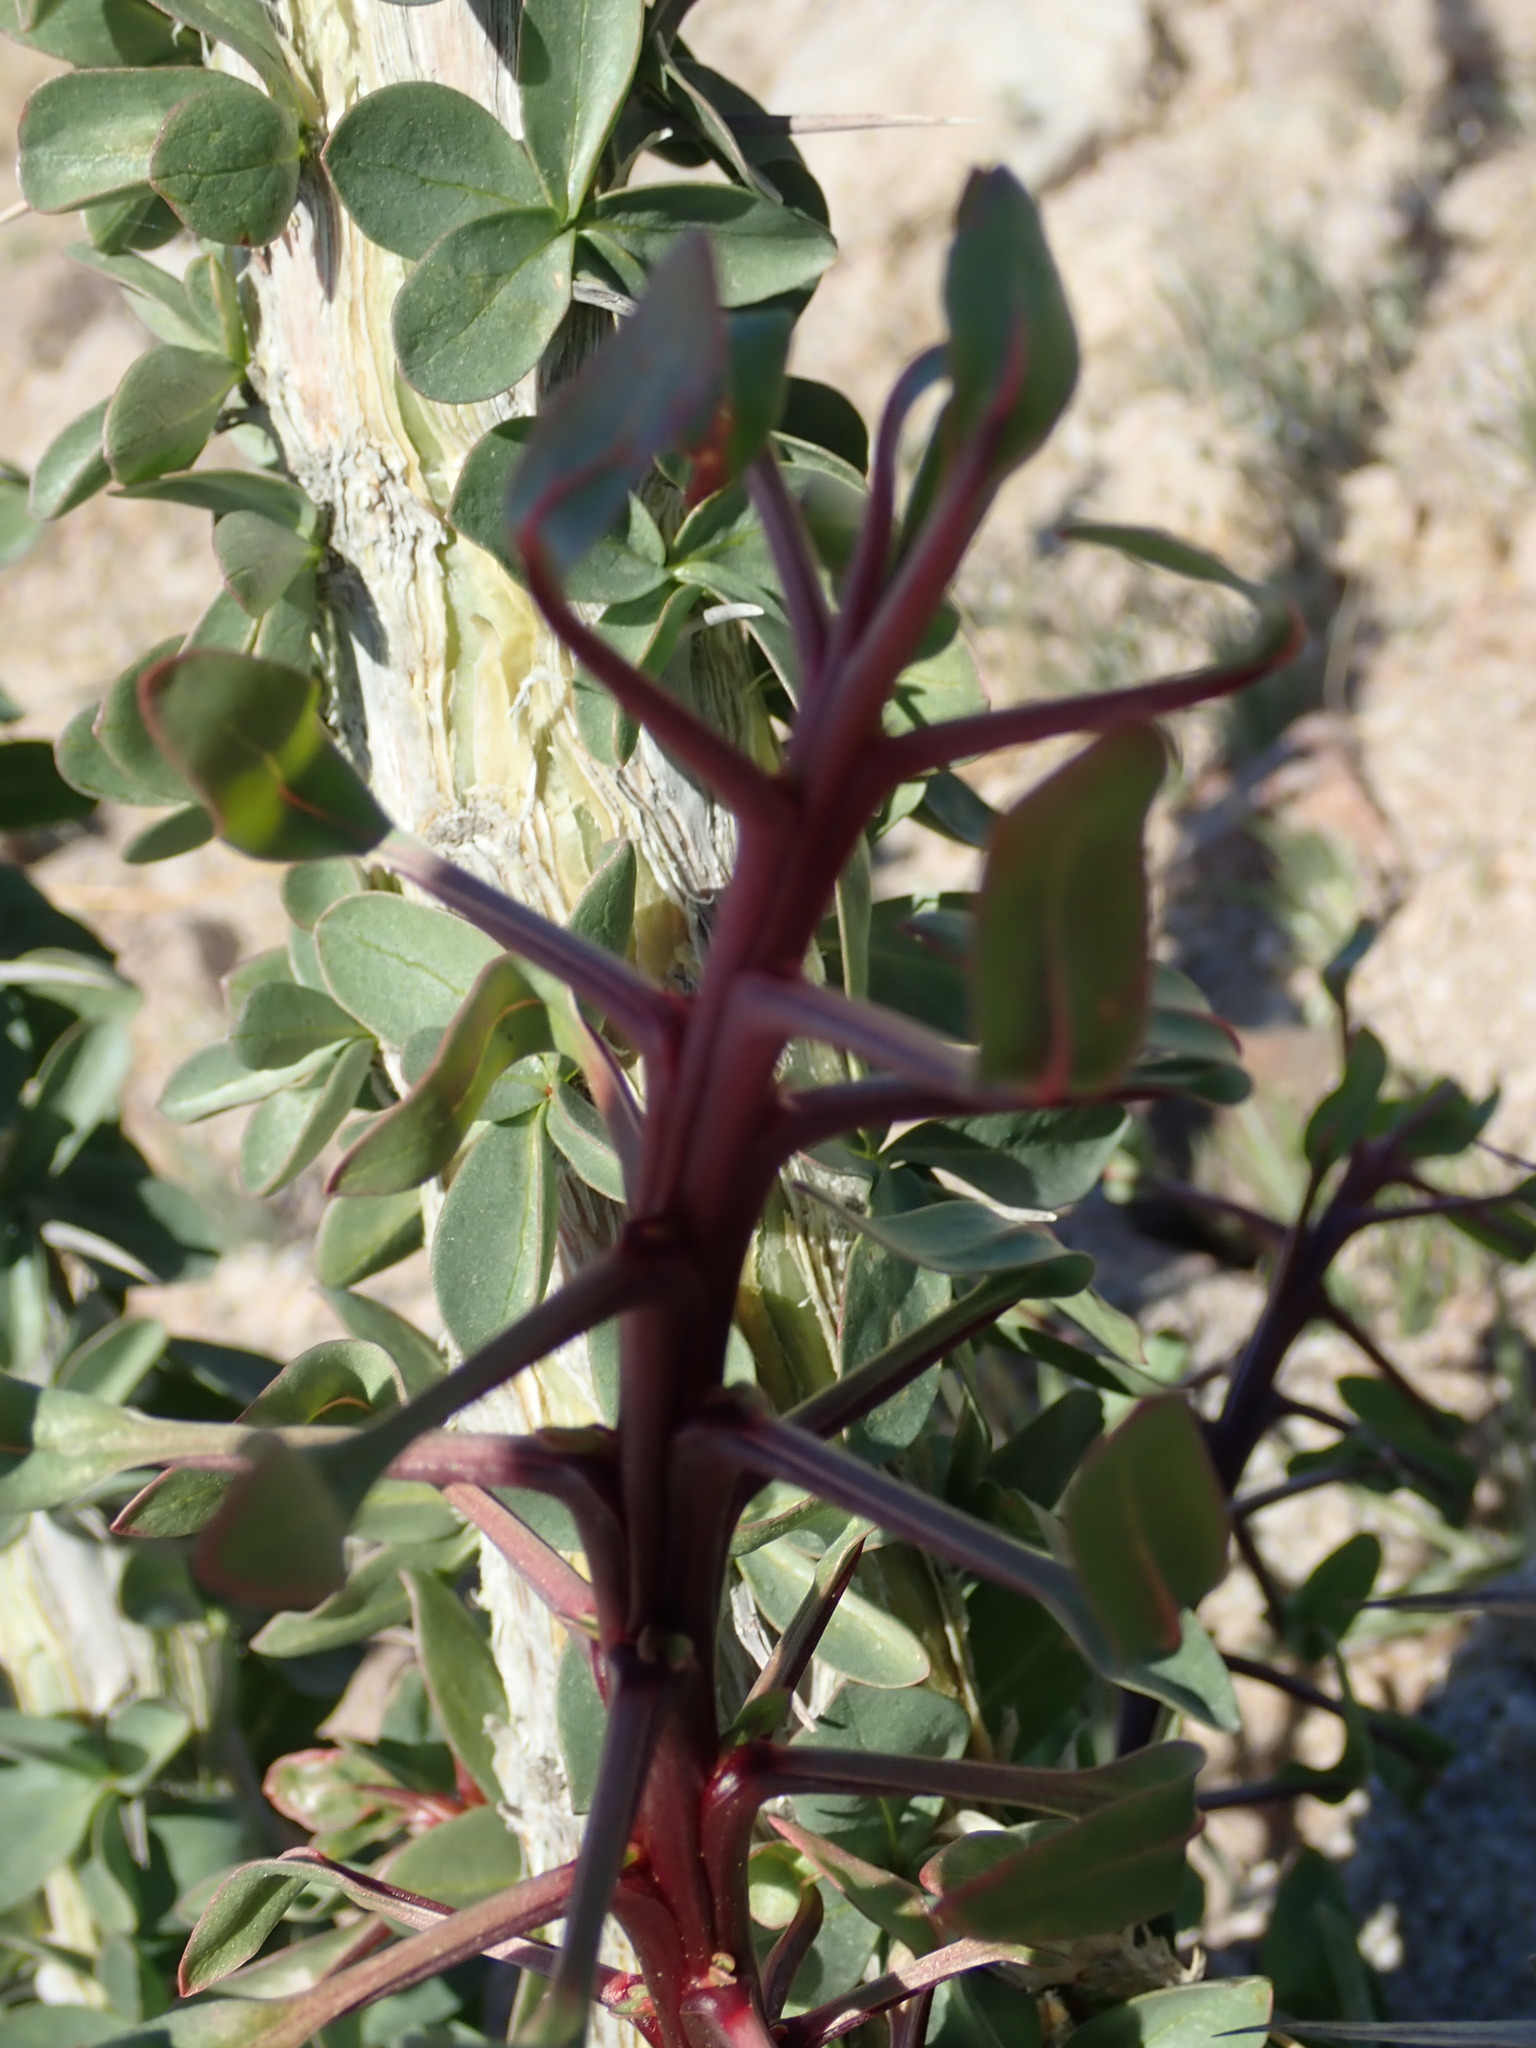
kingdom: Plantae
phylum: Tracheophyta
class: Magnoliopsida
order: Ericales
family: Fouquieriaceae
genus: Fouquieria
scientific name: Fouquieria splendens
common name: Vine-cactus
